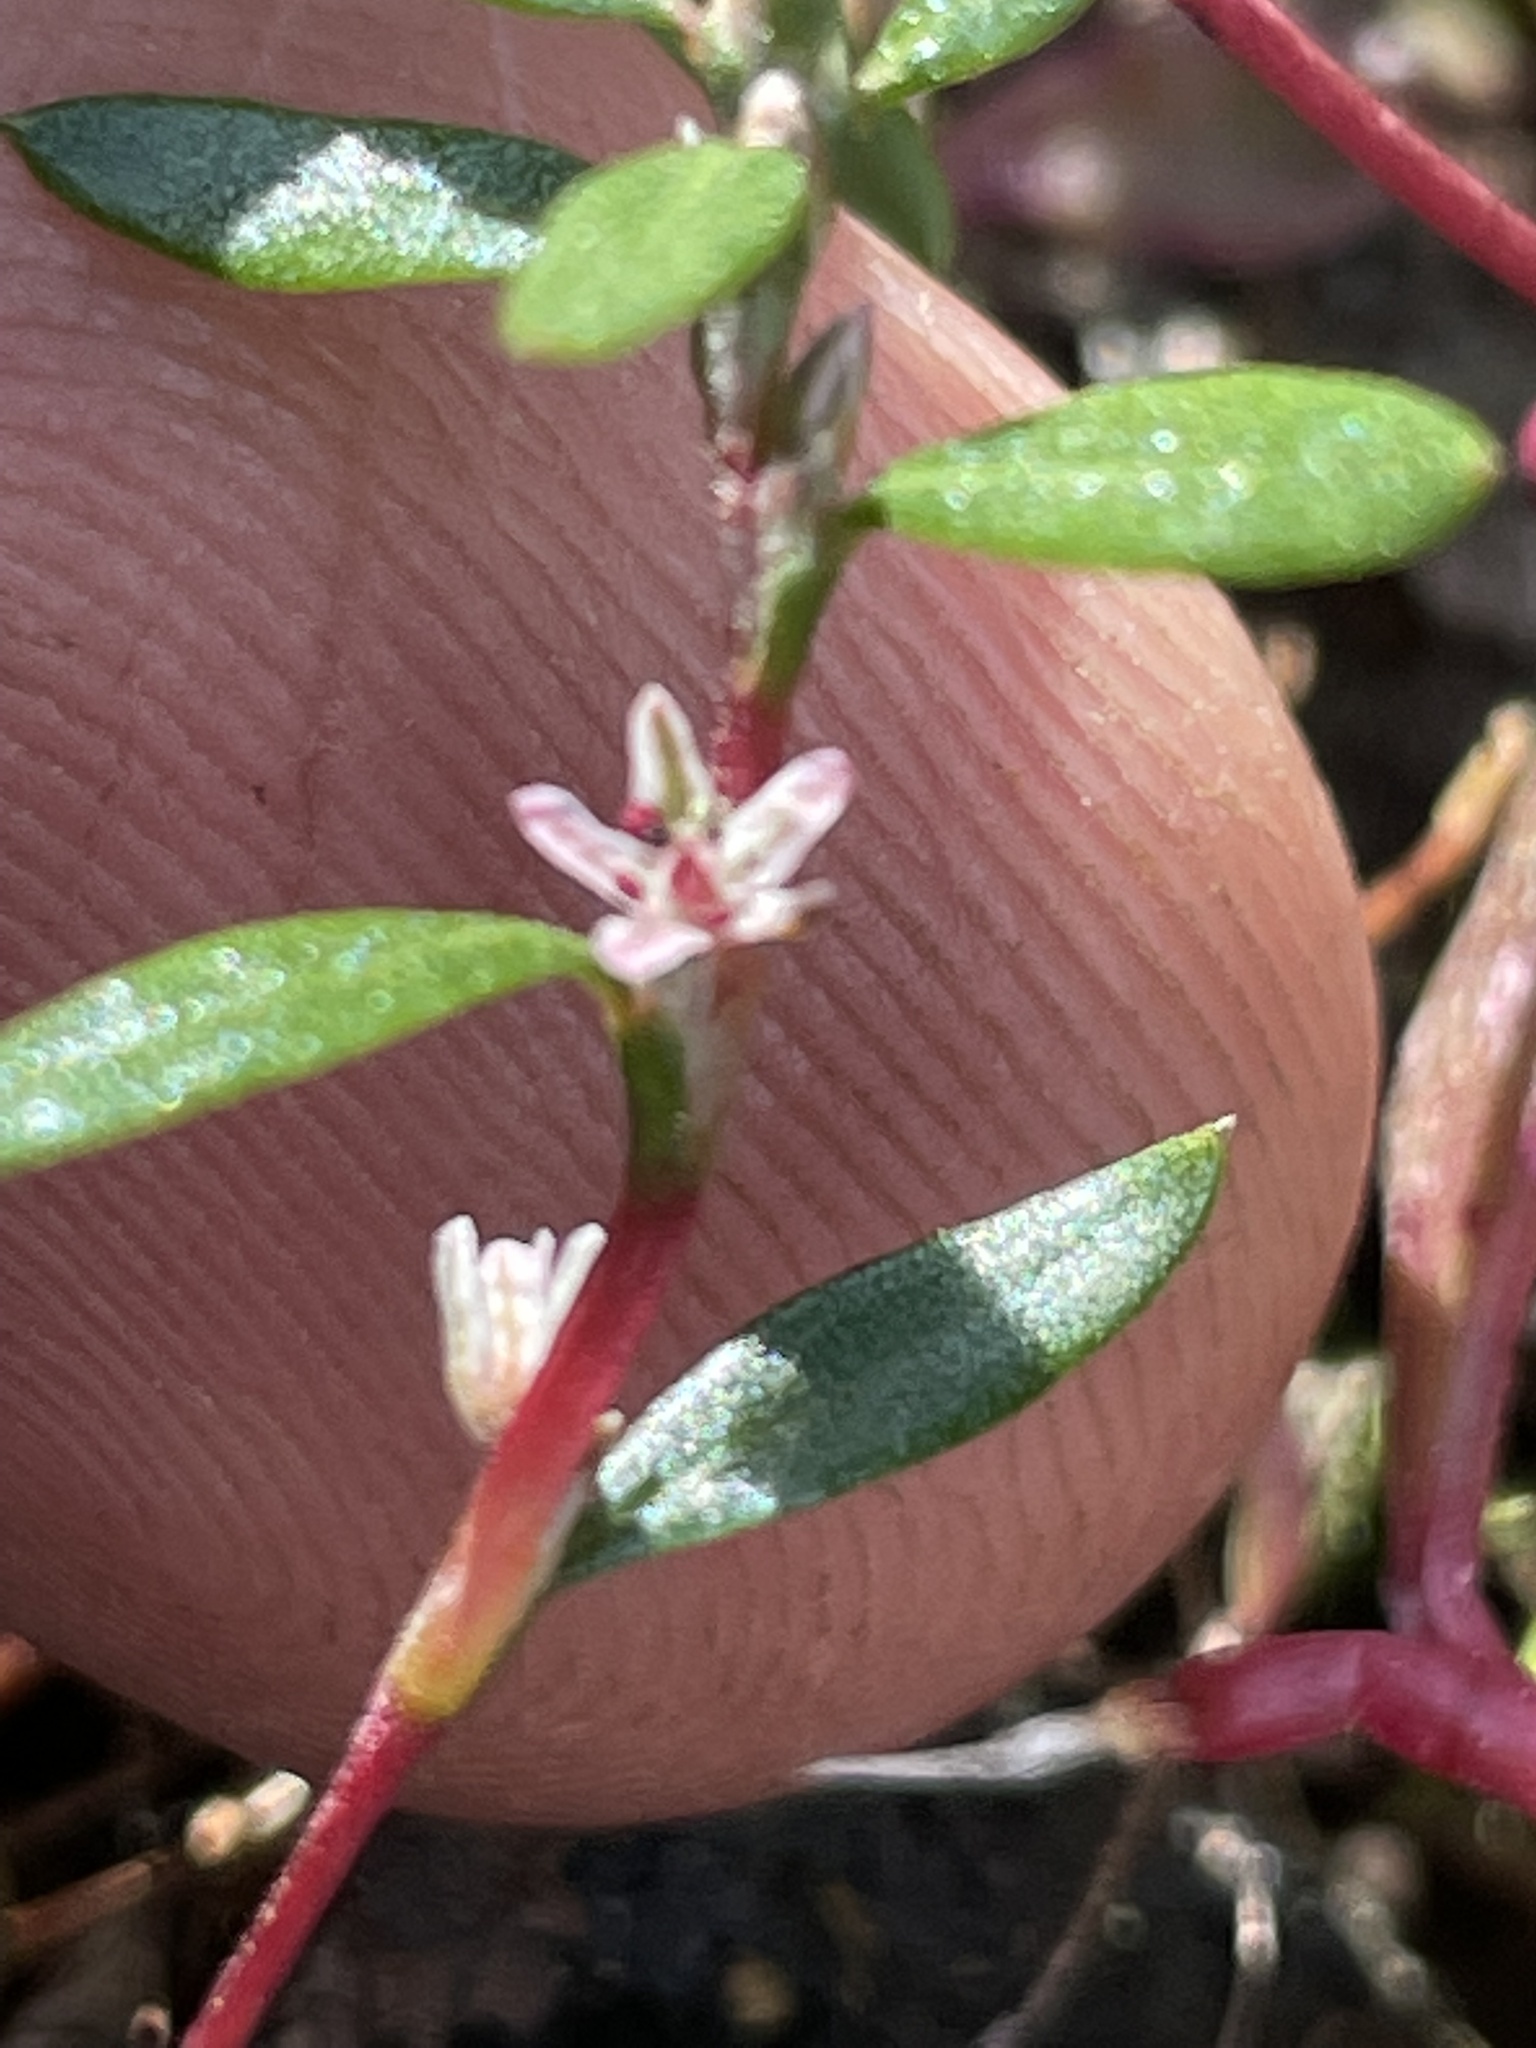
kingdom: Plantae
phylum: Tracheophyta
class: Magnoliopsida
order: Caryophyllales
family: Polygonaceae
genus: Polygonum
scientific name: Polygonum nuttallii
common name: Nuttall's knotweed
